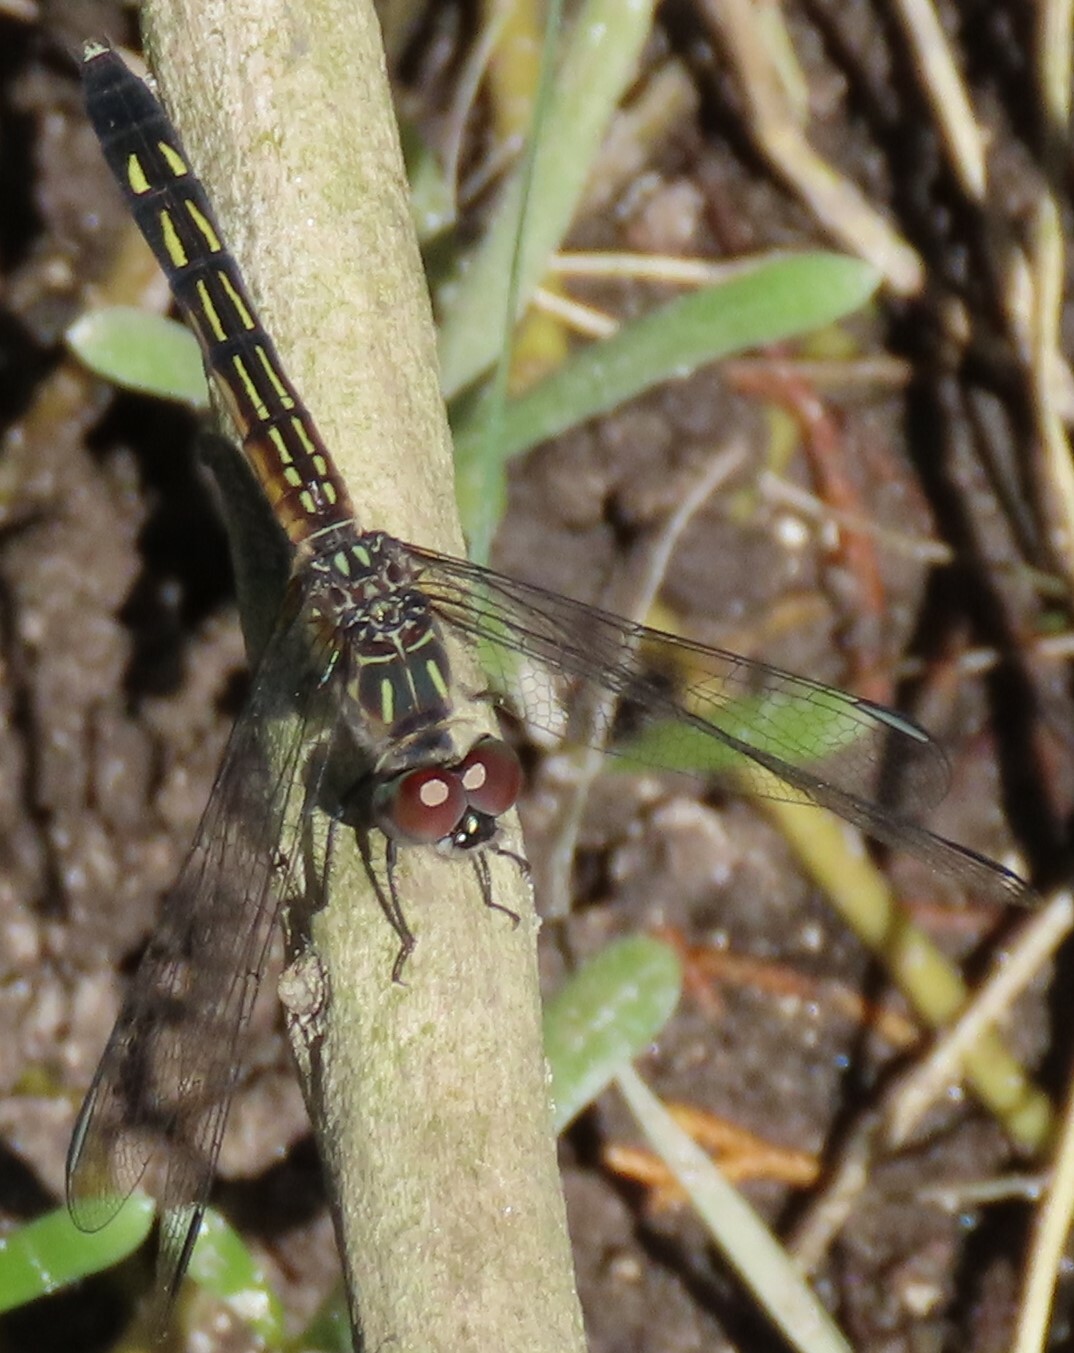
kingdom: Animalia
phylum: Arthropoda
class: Insecta
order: Odonata
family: Libellulidae
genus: Pachydiplax
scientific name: Pachydiplax longipennis
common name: Blue dasher
